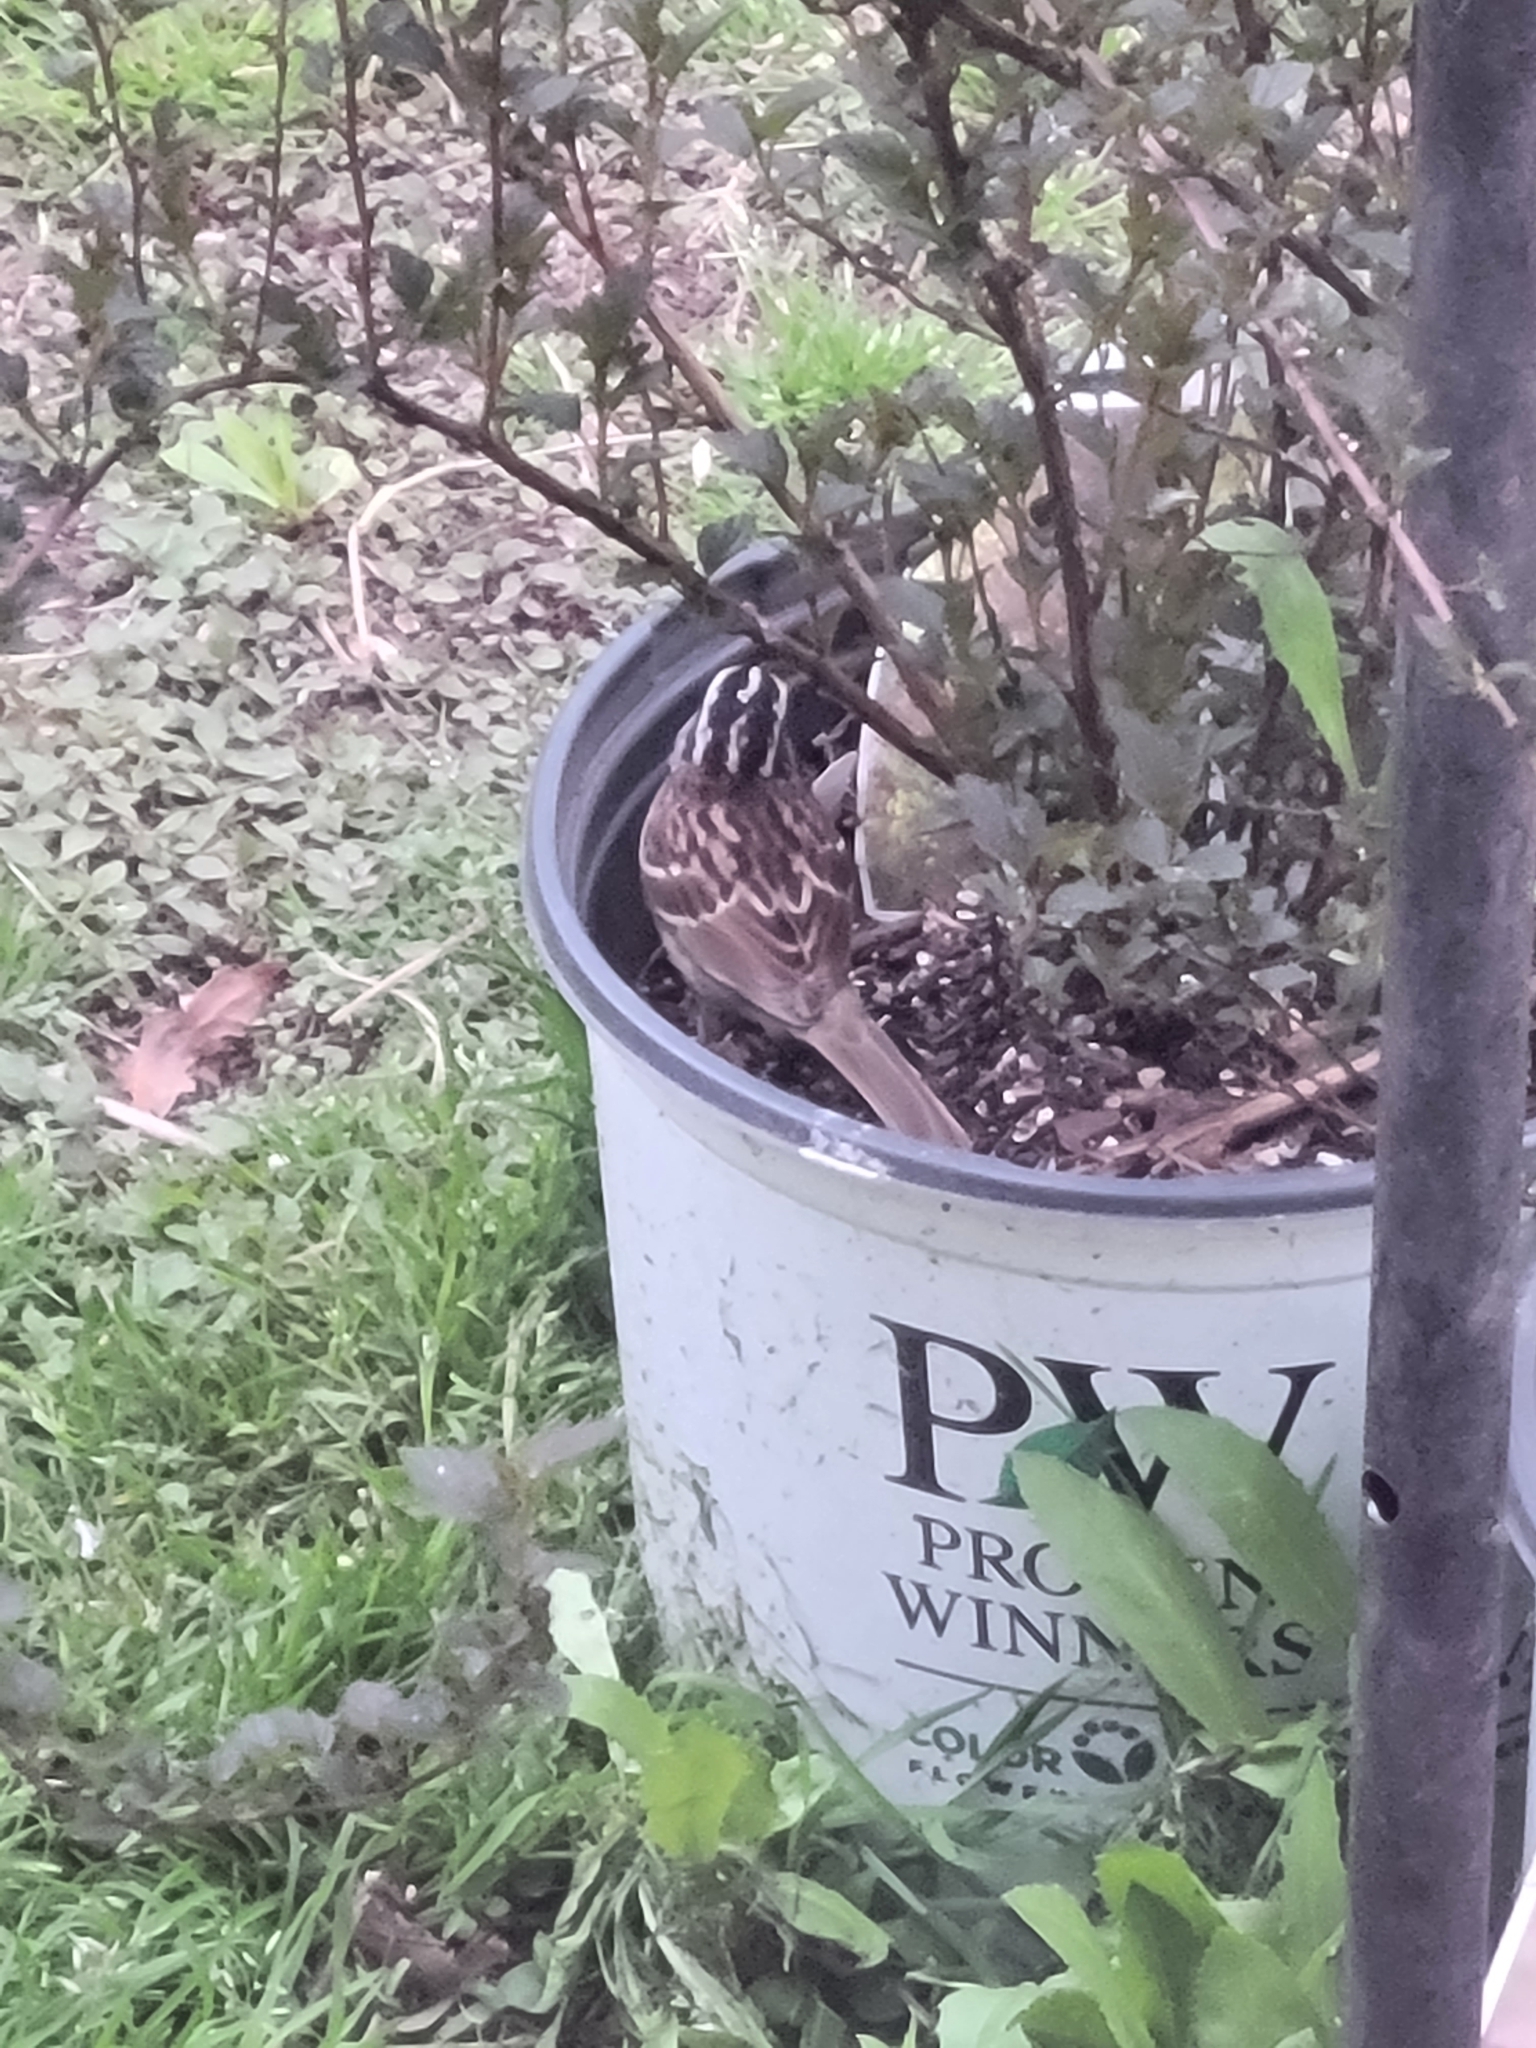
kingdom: Animalia
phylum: Chordata
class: Aves
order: Passeriformes
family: Passerellidae
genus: Zonotrichia
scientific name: Zonotrichia albicollis
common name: White-throated sparrow
